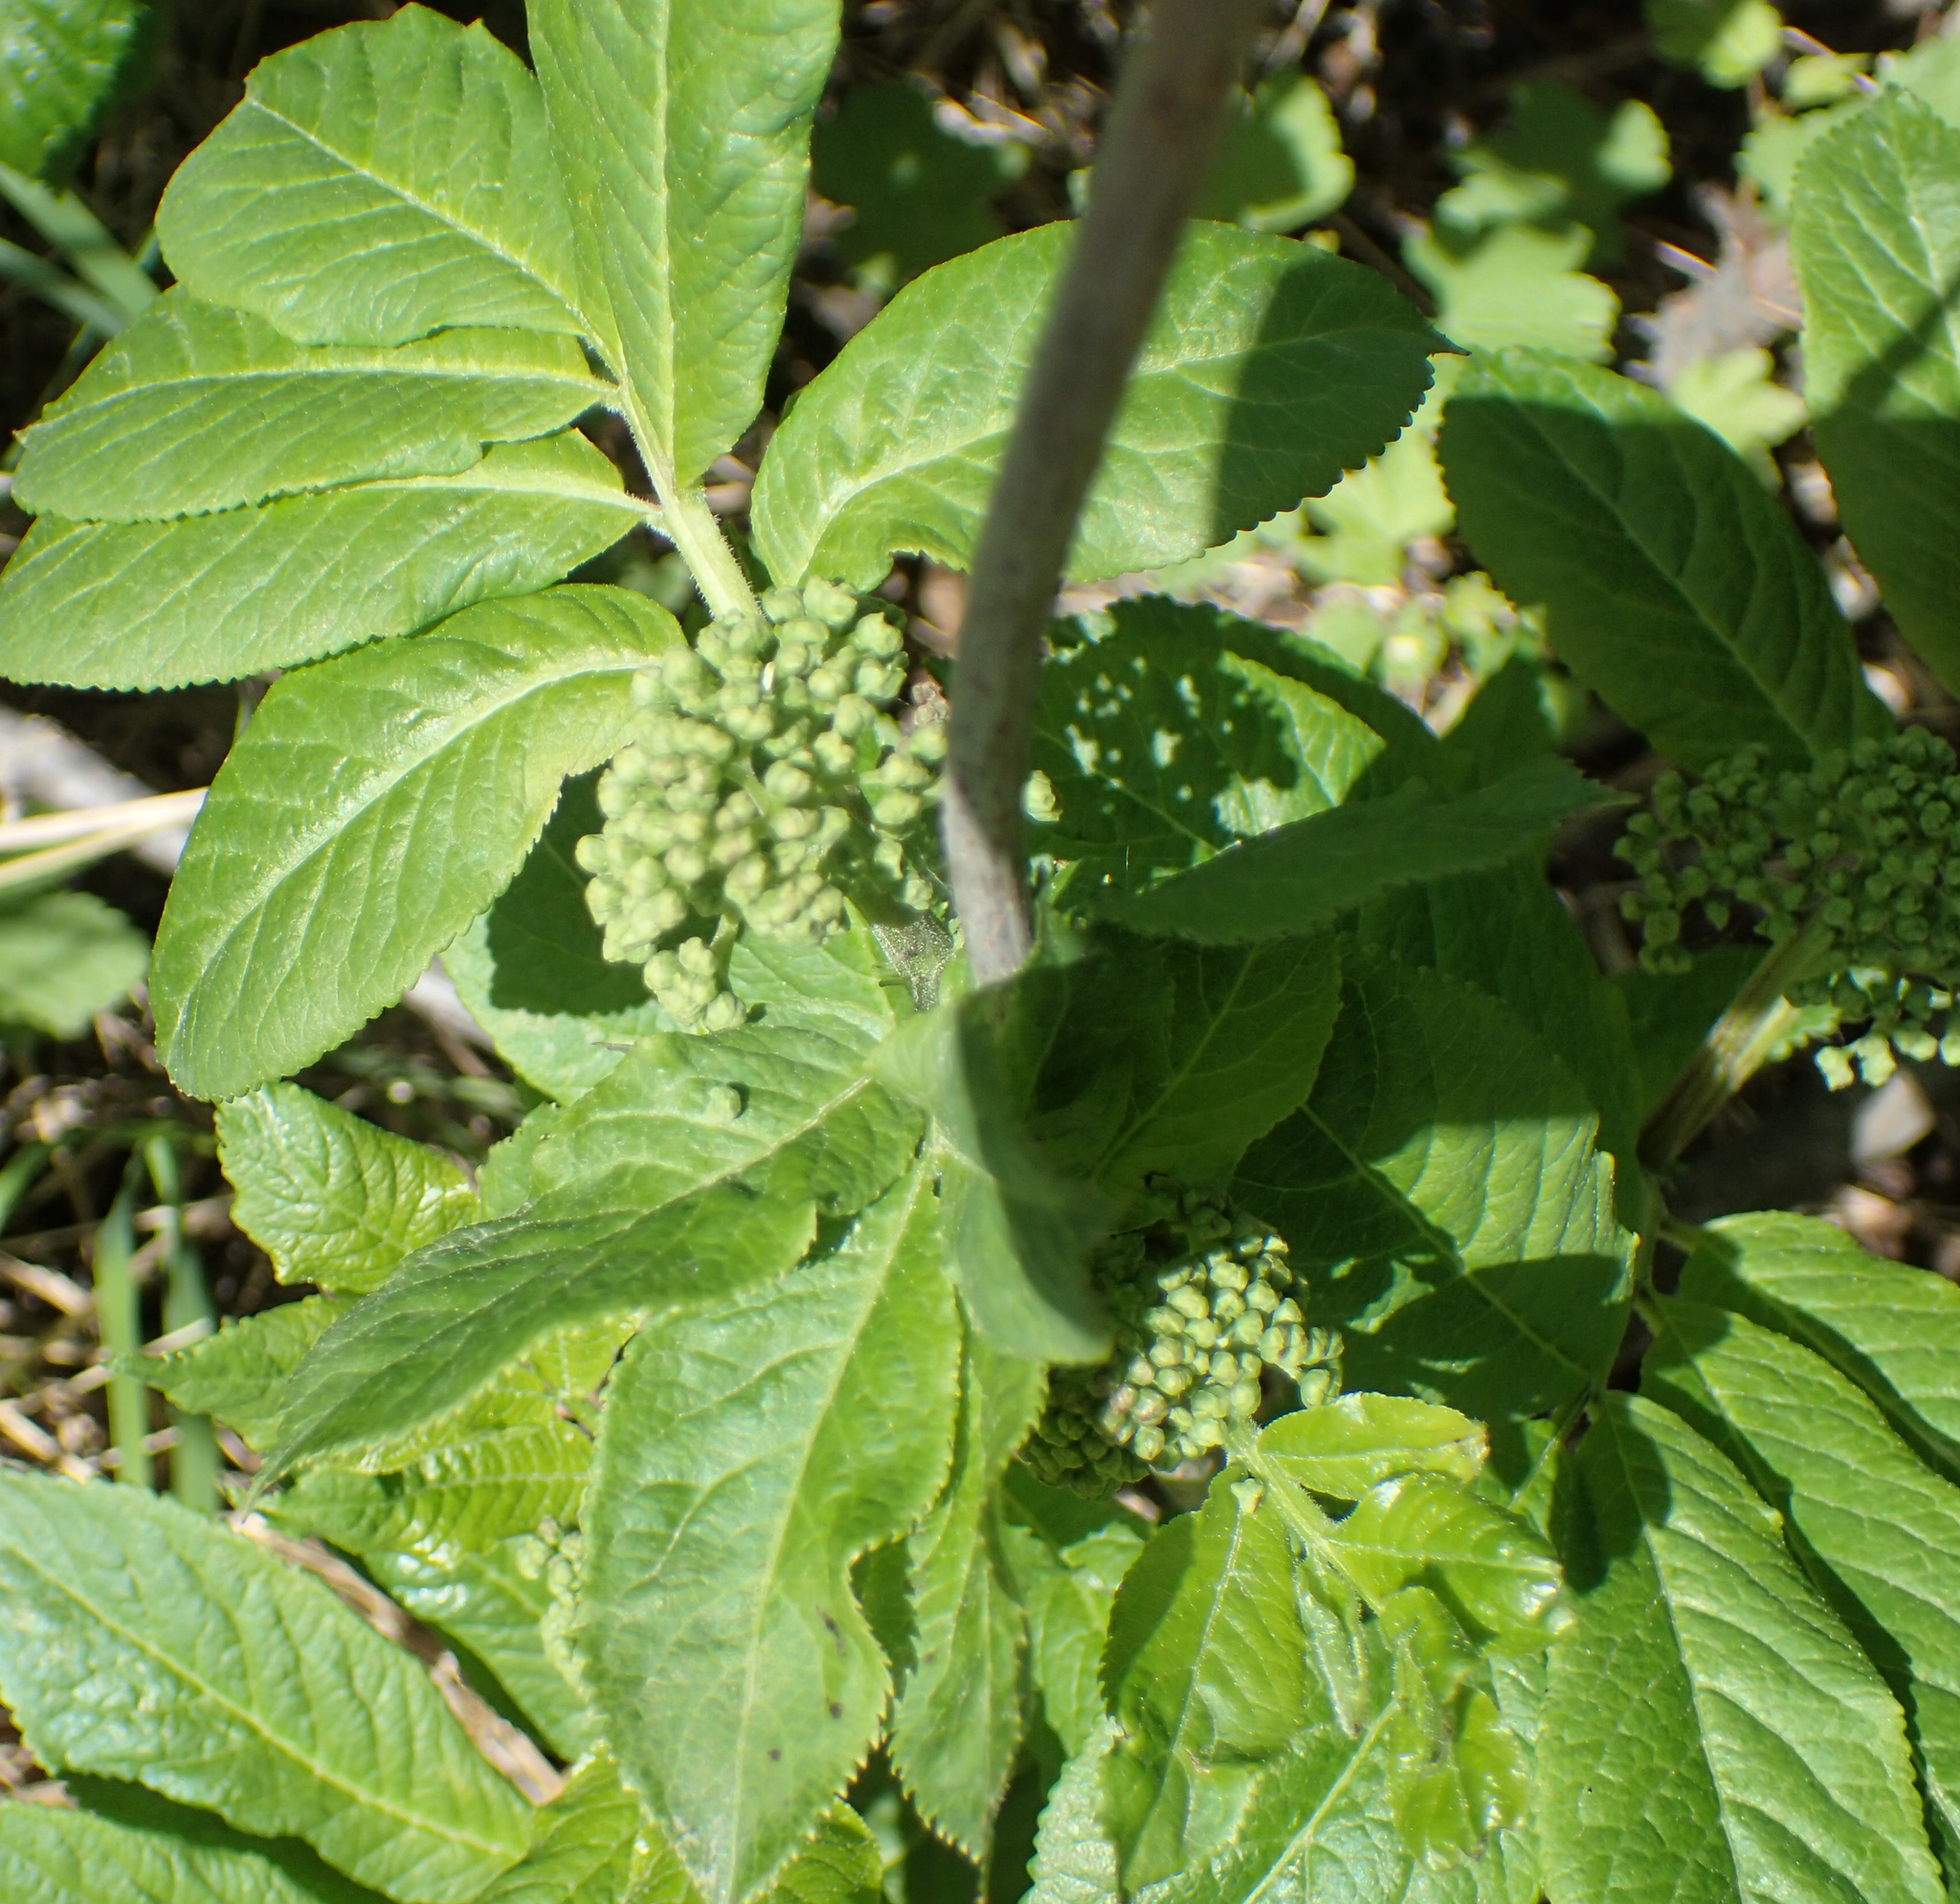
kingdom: Plantae
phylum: Tracheophyta
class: Magnoliopsida
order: Dipsacales
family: Viburnaceae
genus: Sambucus
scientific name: Sambucus racemosa
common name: Red-berried elder
